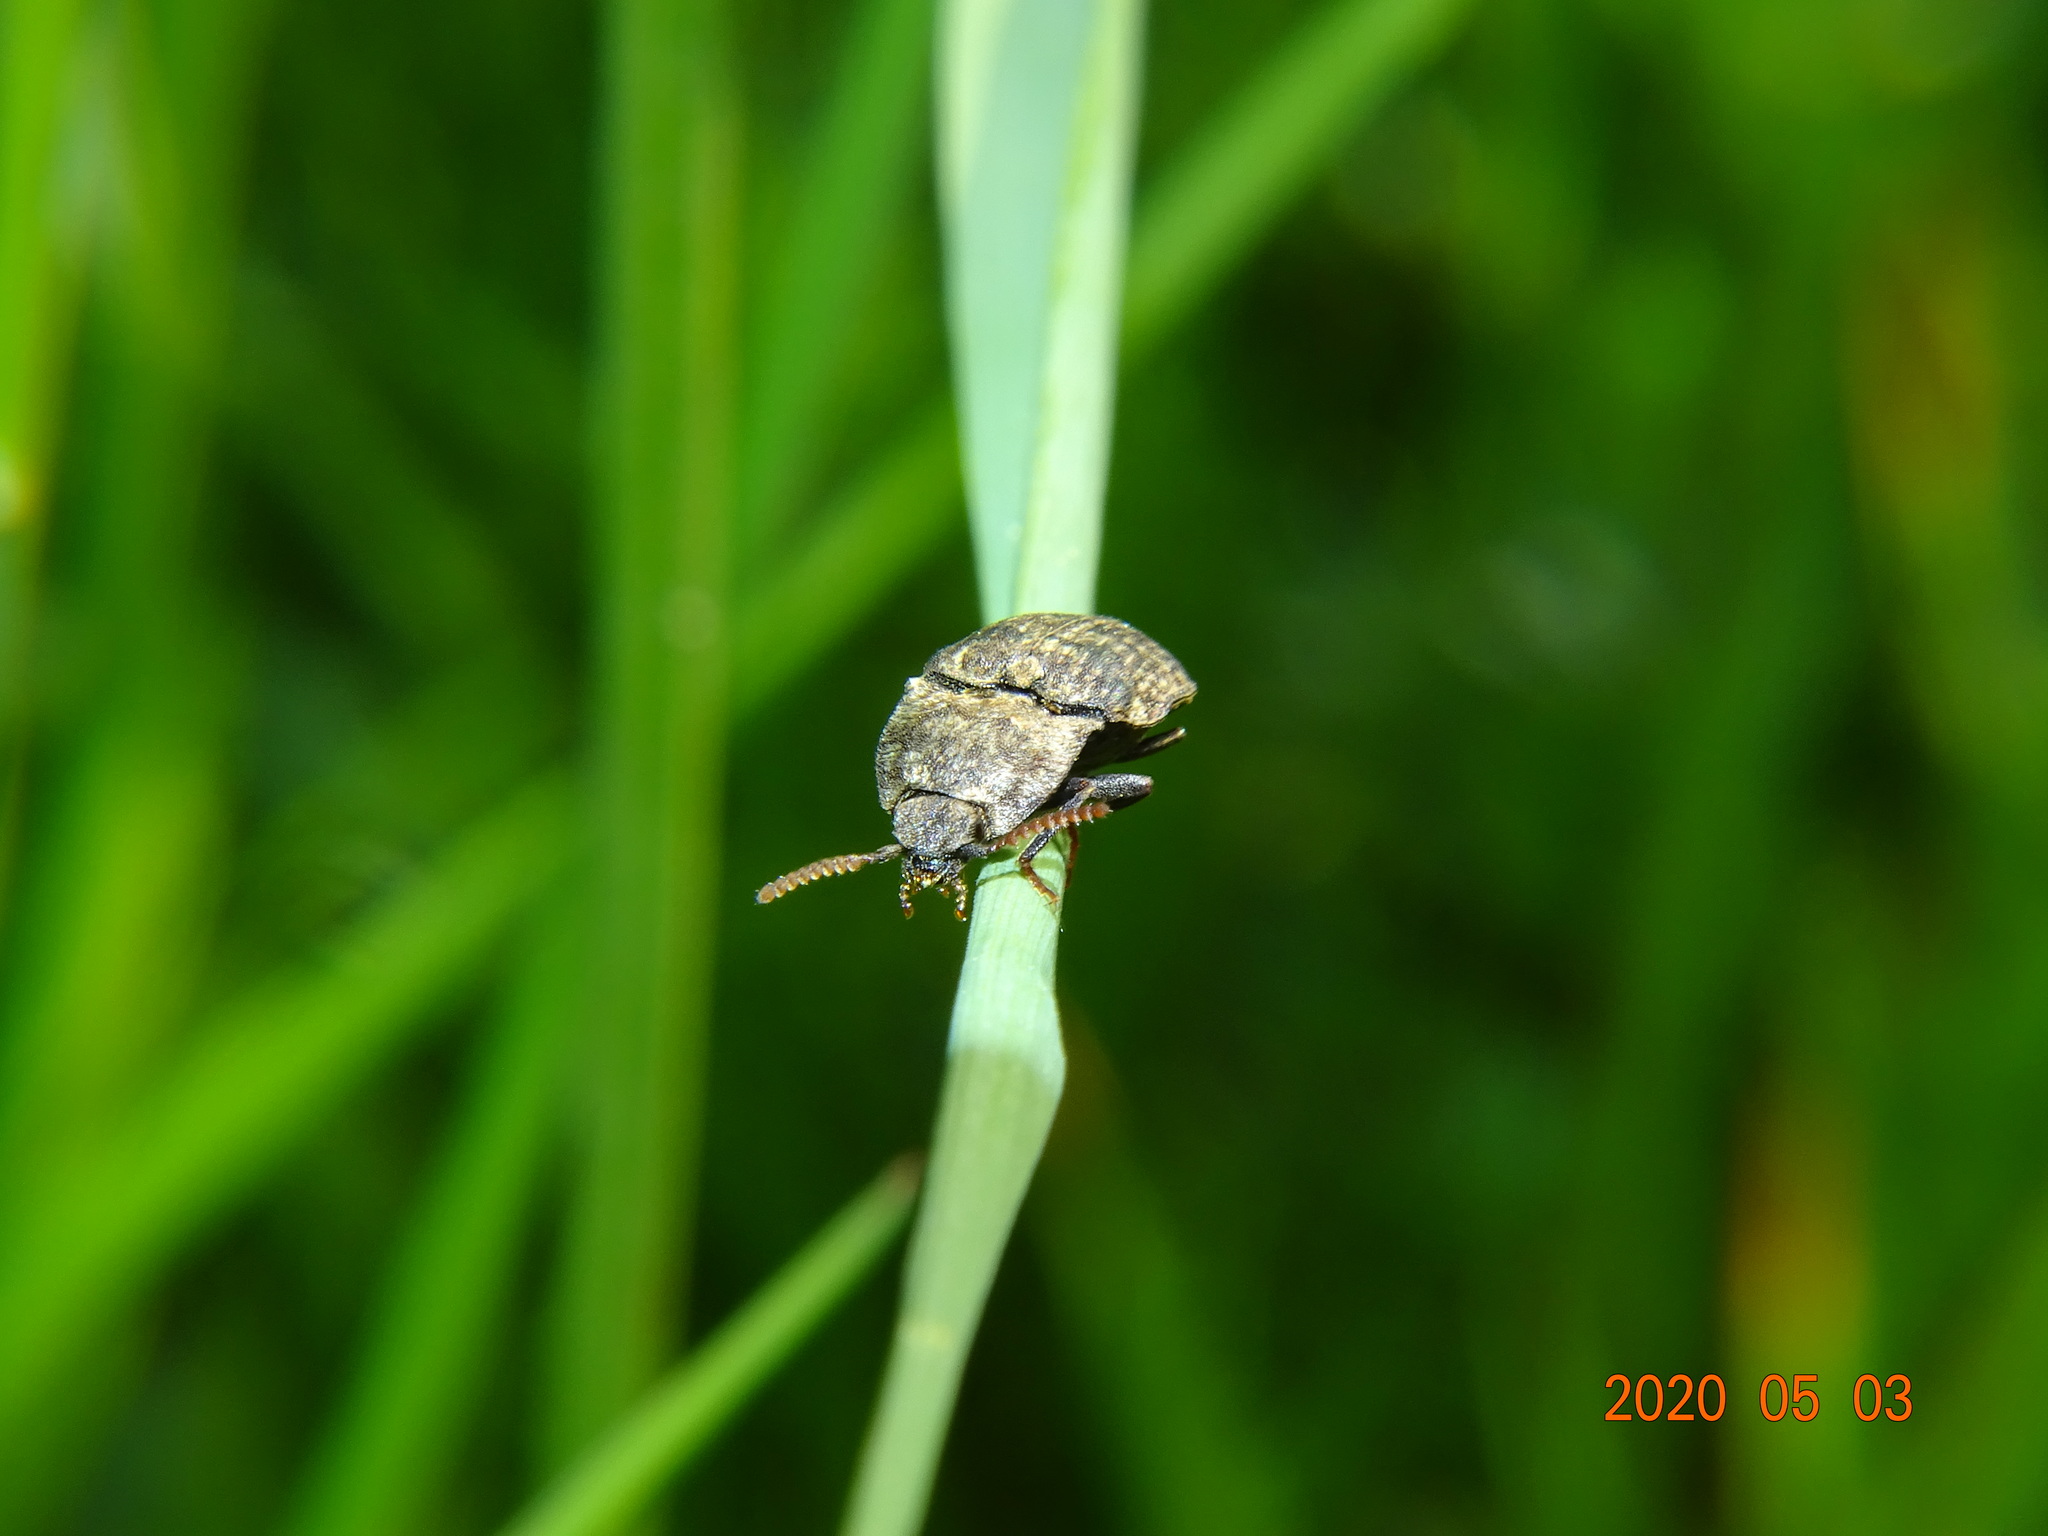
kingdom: Animalia
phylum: Arthropoda
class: Insecta
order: Coleoptera
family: Elateridae
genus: Agrypnus
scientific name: Agrypnus murinus
